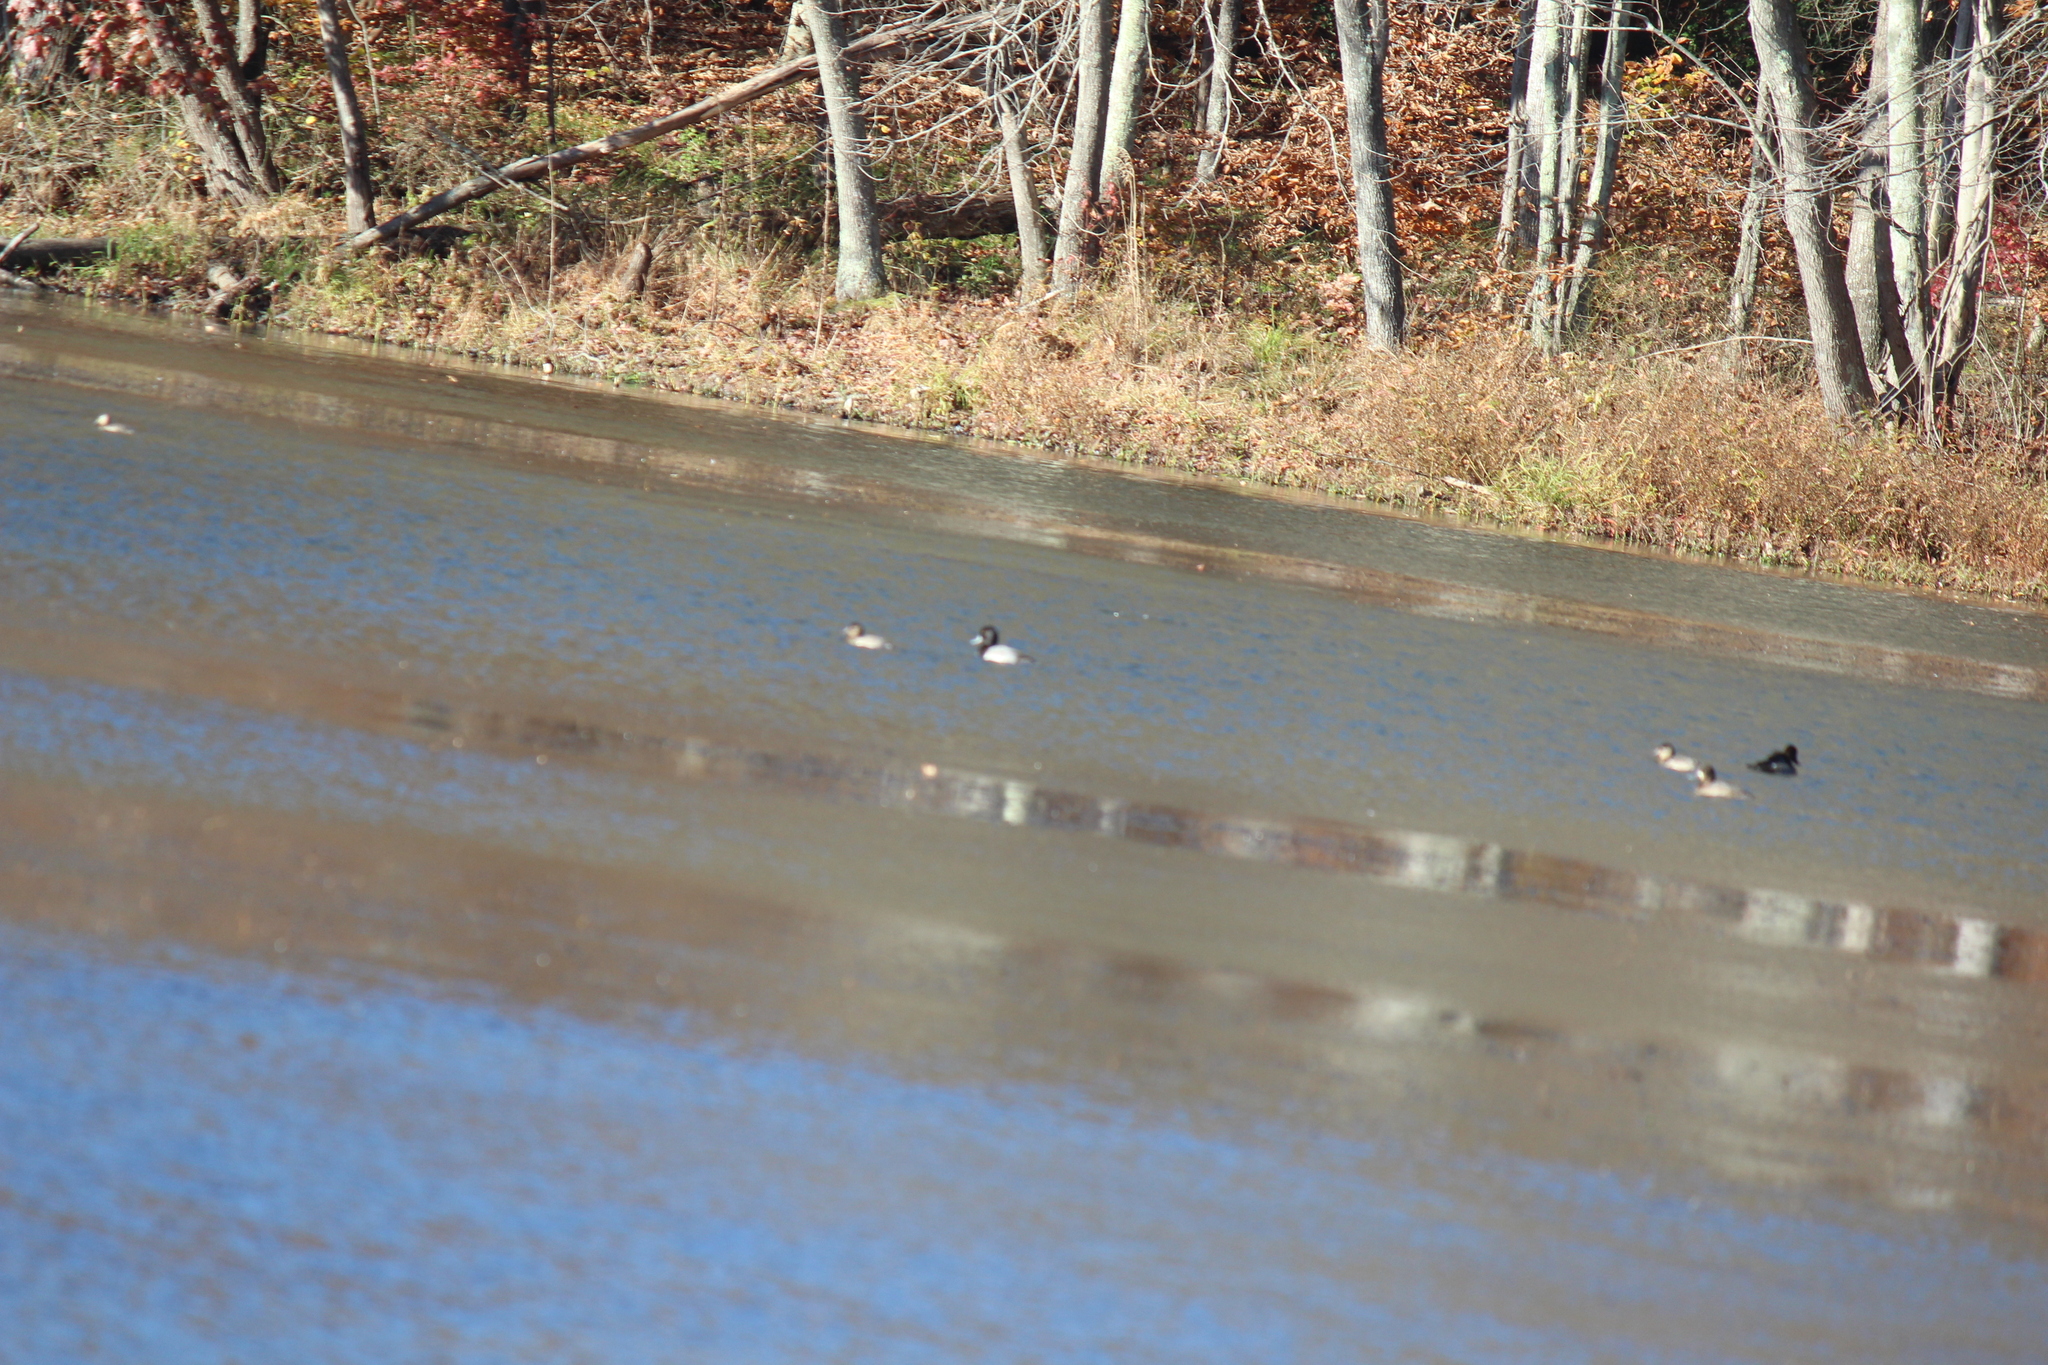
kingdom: Animalia
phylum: Chordata
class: Aves
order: Anseriformes
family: Anatidae
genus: Aythya
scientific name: Aythya affinis
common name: Lesser scaup
